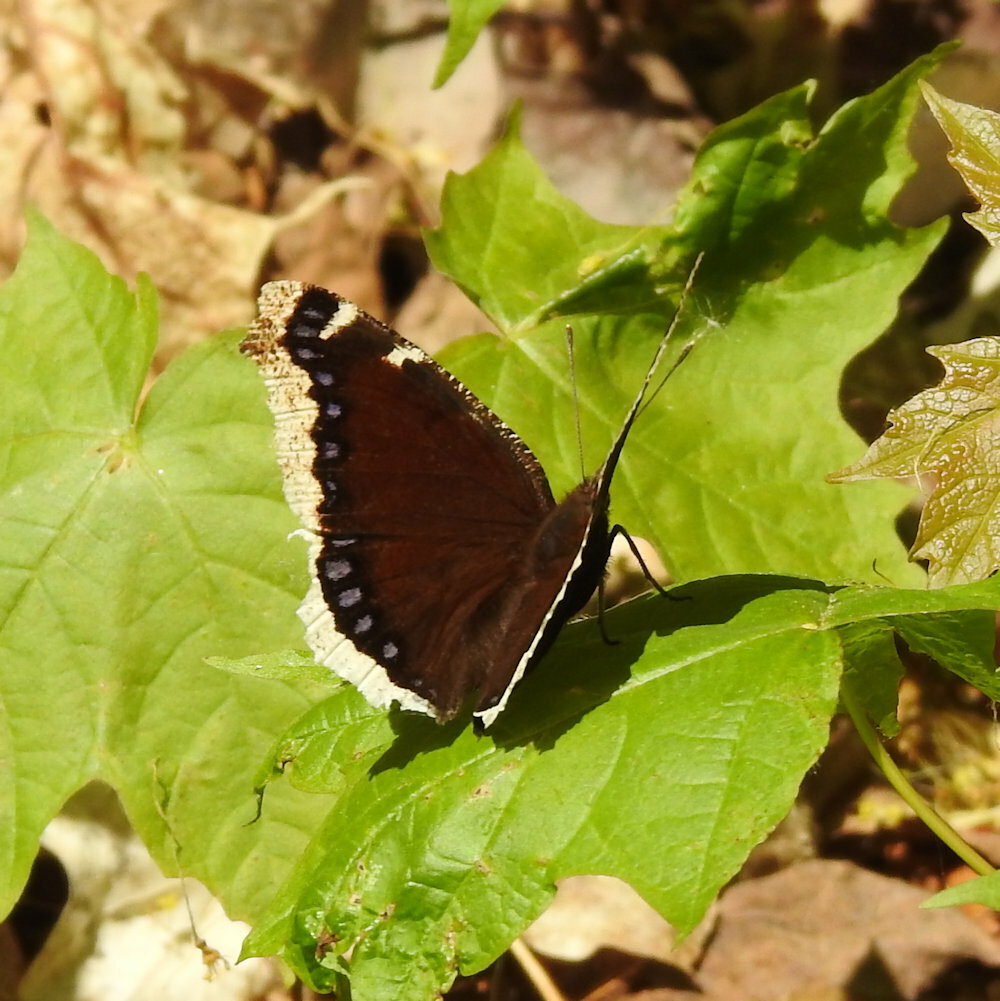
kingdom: Animalia
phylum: Arthropoda
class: Insecta
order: Lepidoptera
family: Nymphalidae
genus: Nymphalis
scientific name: Nymphalis antiopa
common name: Camberwell beauty
